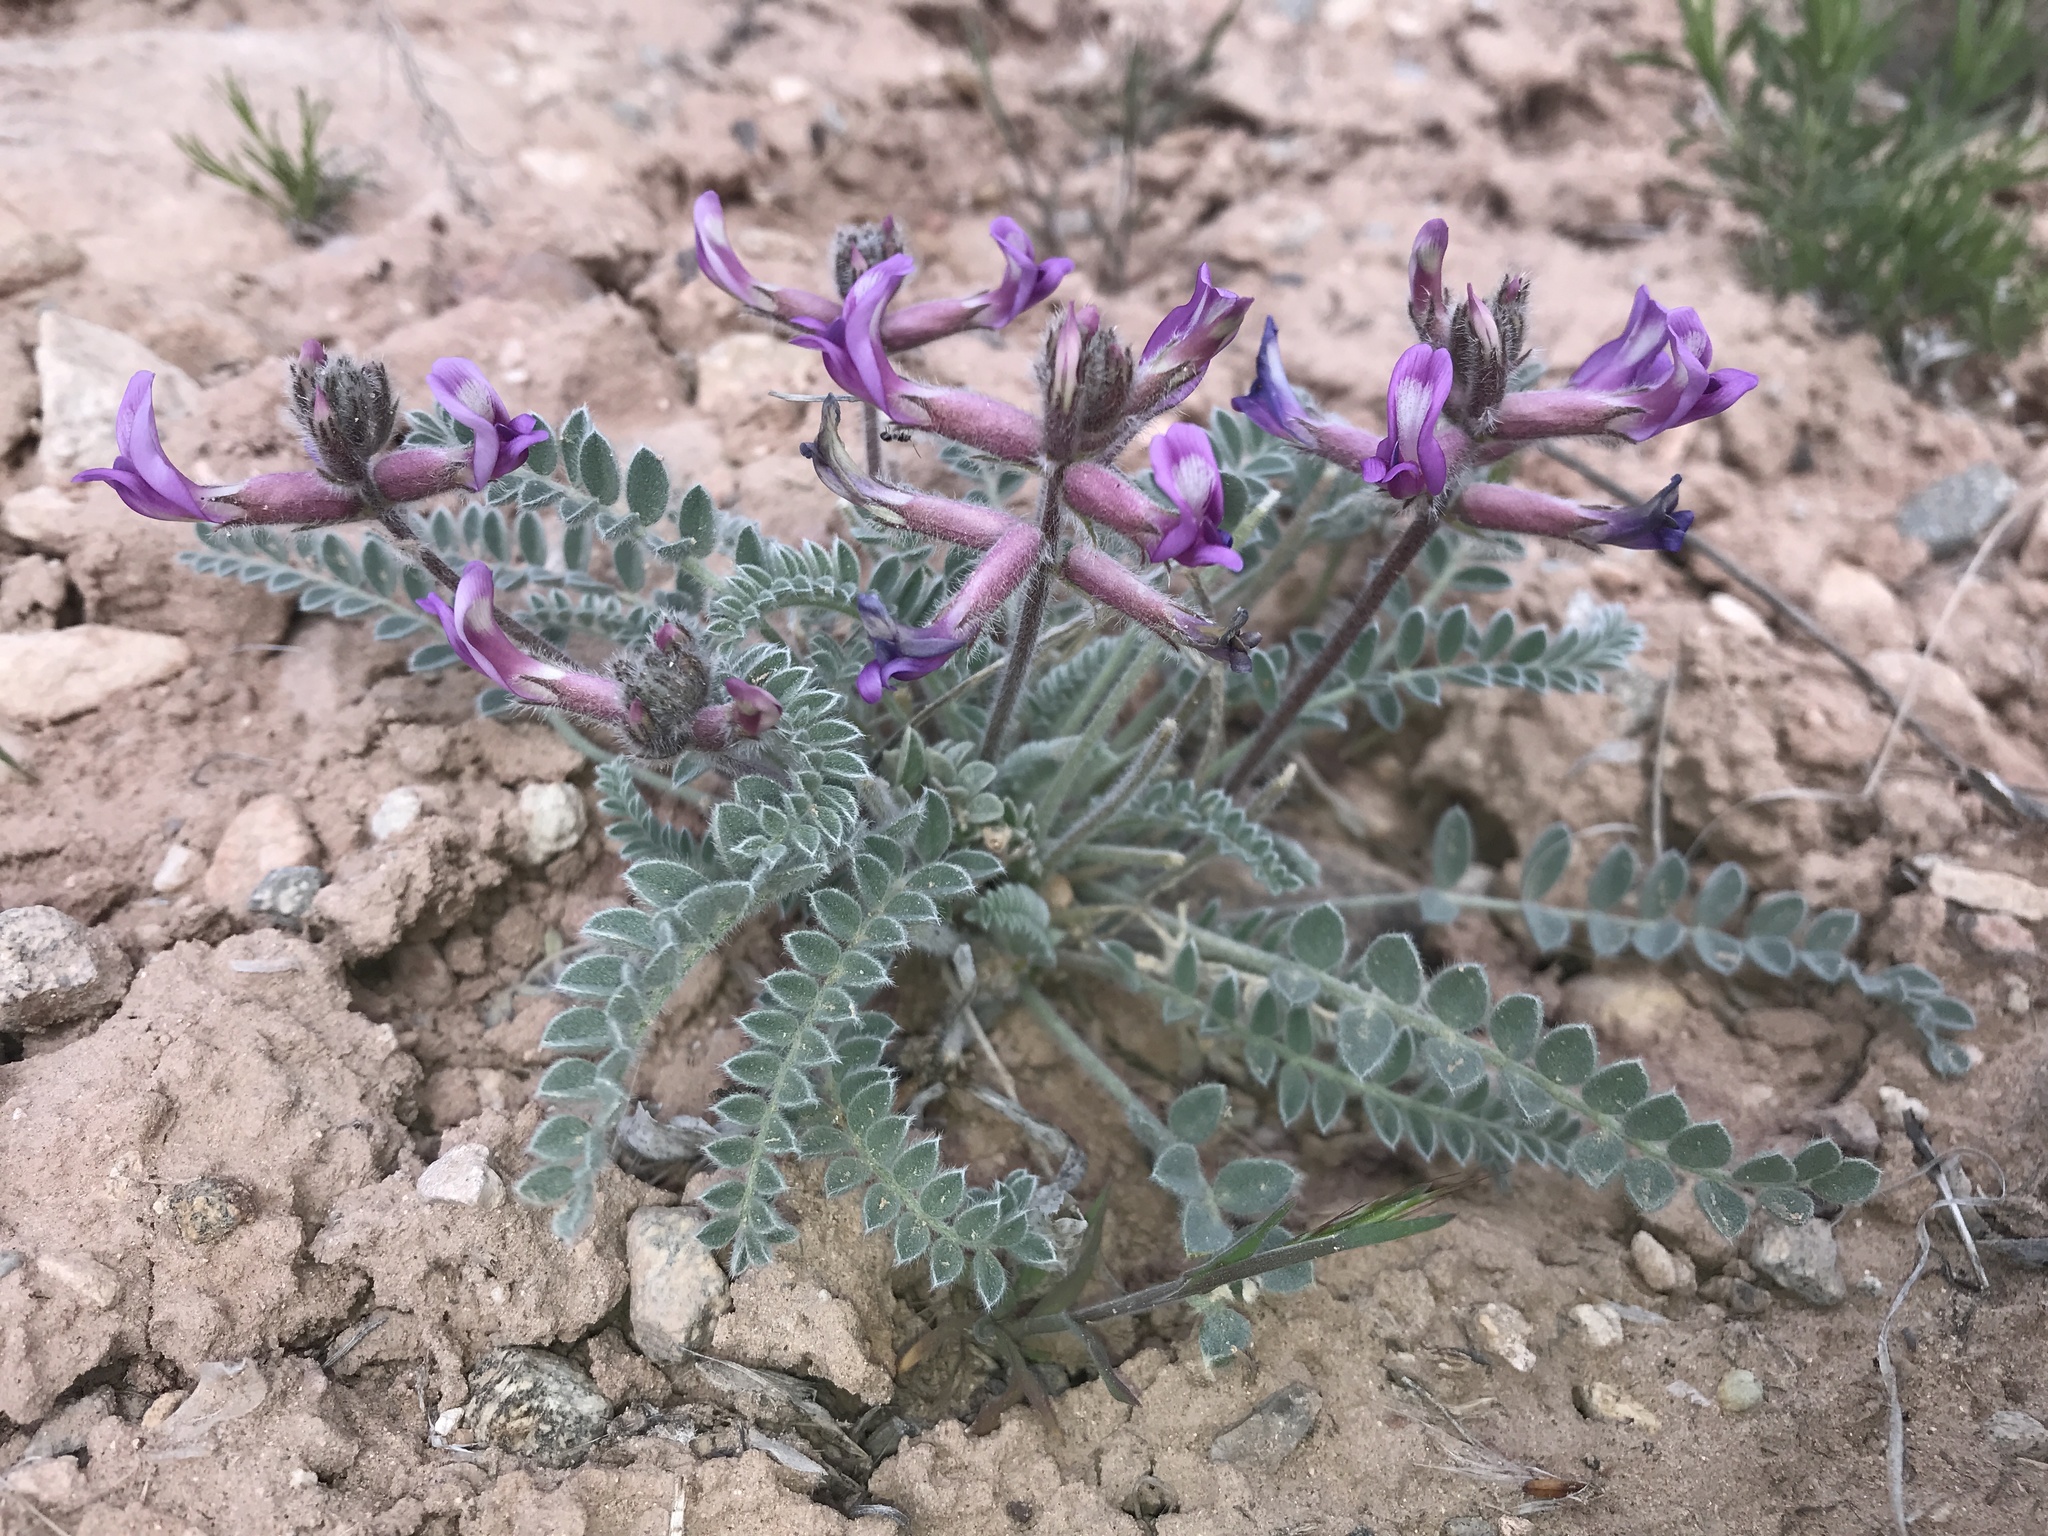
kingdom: Plantae
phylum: Tracheophyta
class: Magnoliopsida
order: Fabales
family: Fabaceae
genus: Astragalus
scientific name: Astragalus mollissimus
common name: Woolly locoweed
